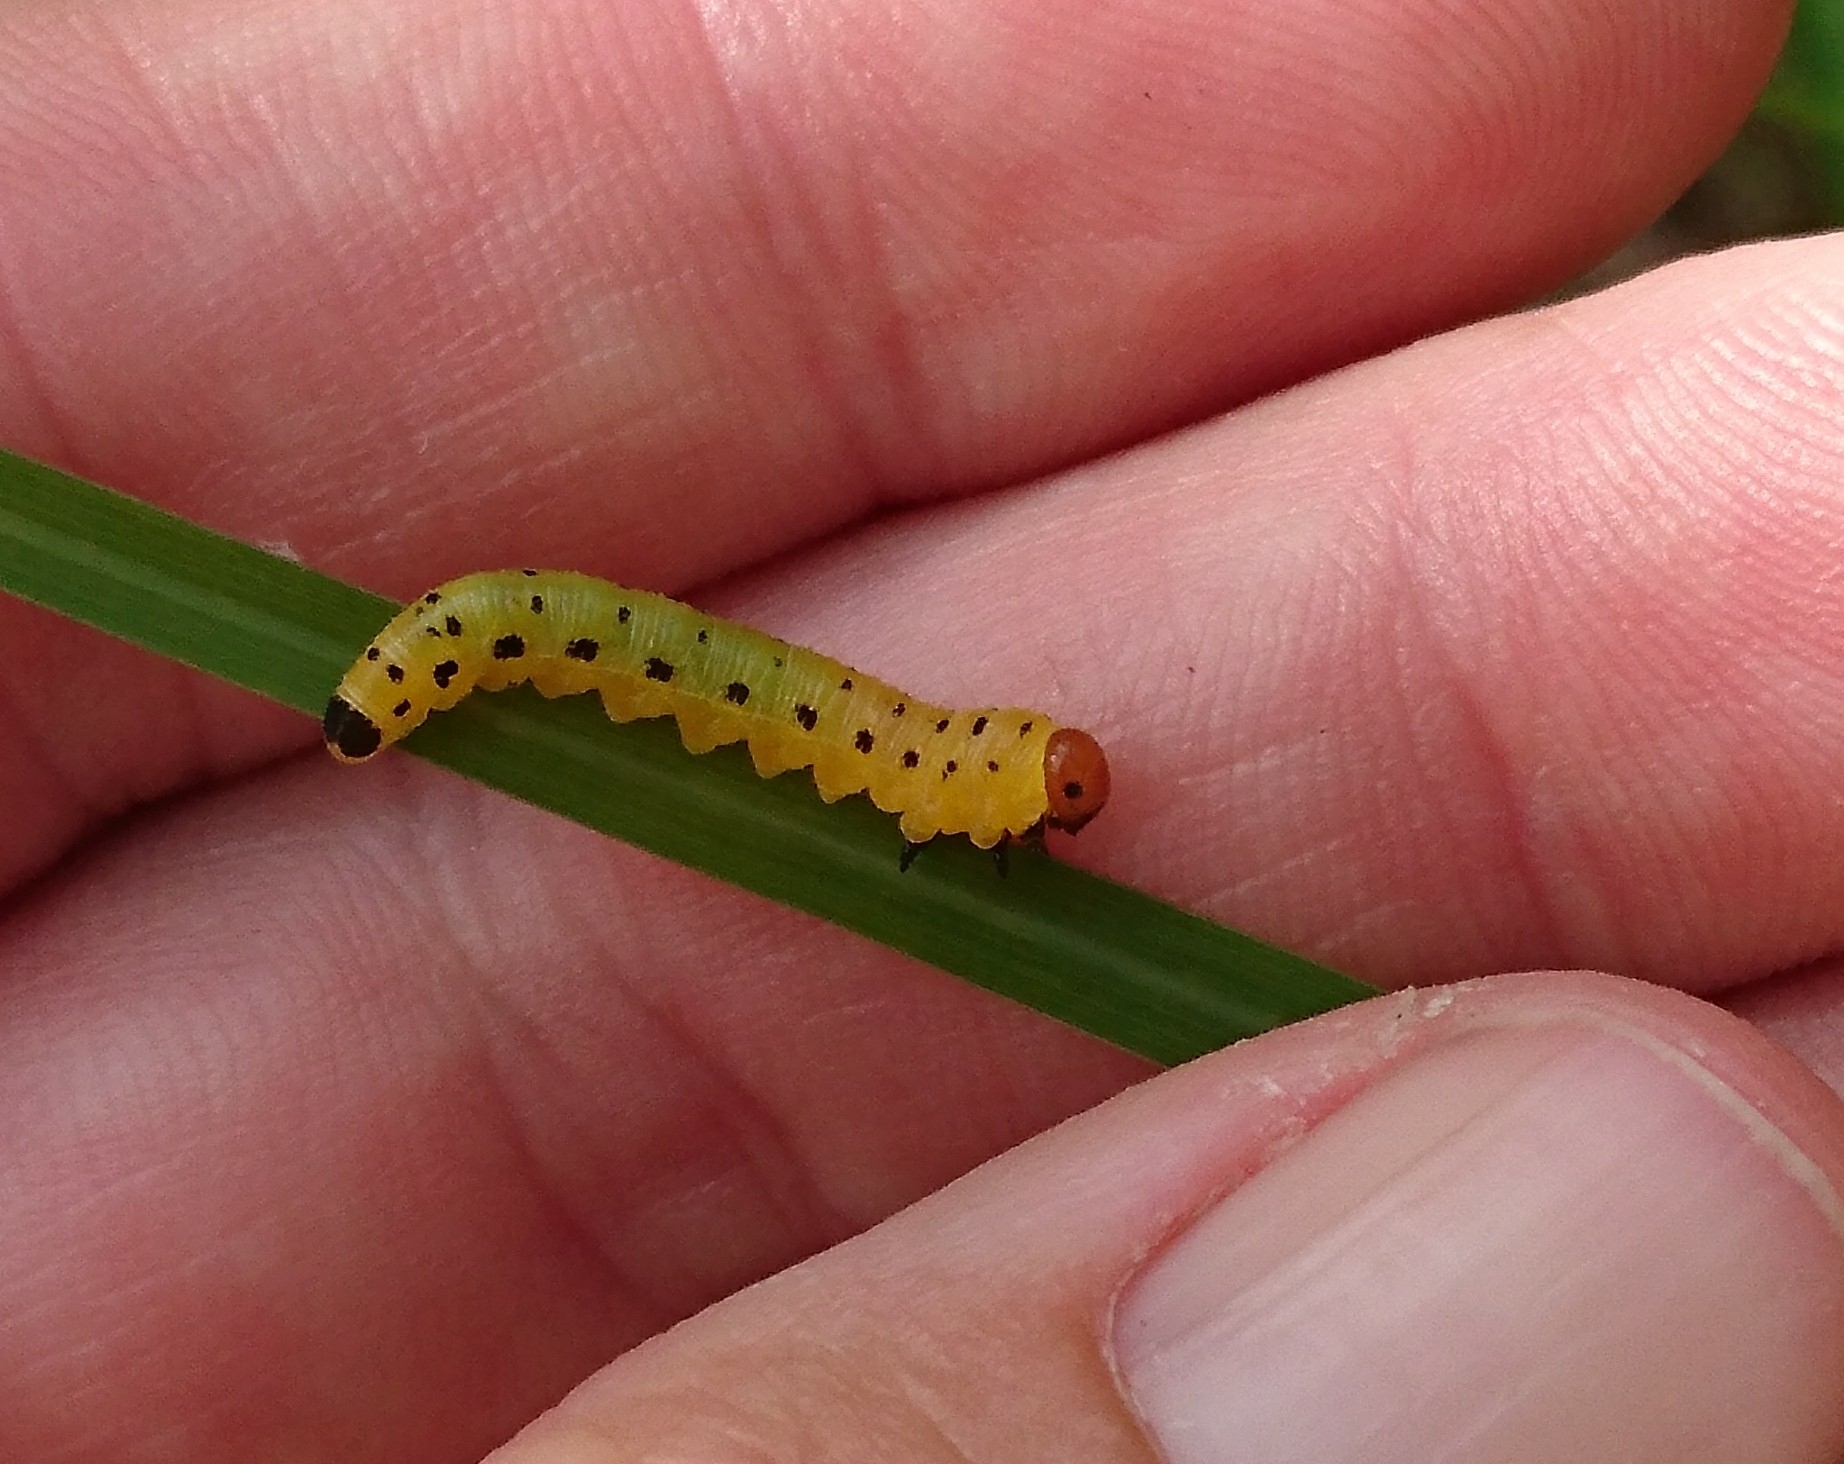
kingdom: Animalia
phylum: Arthropoda
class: Insecta
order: Hymenoptera
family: Diprionidae
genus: Neodiprion
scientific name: Neodiprion lecontei
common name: Redheaded pine sawfly
